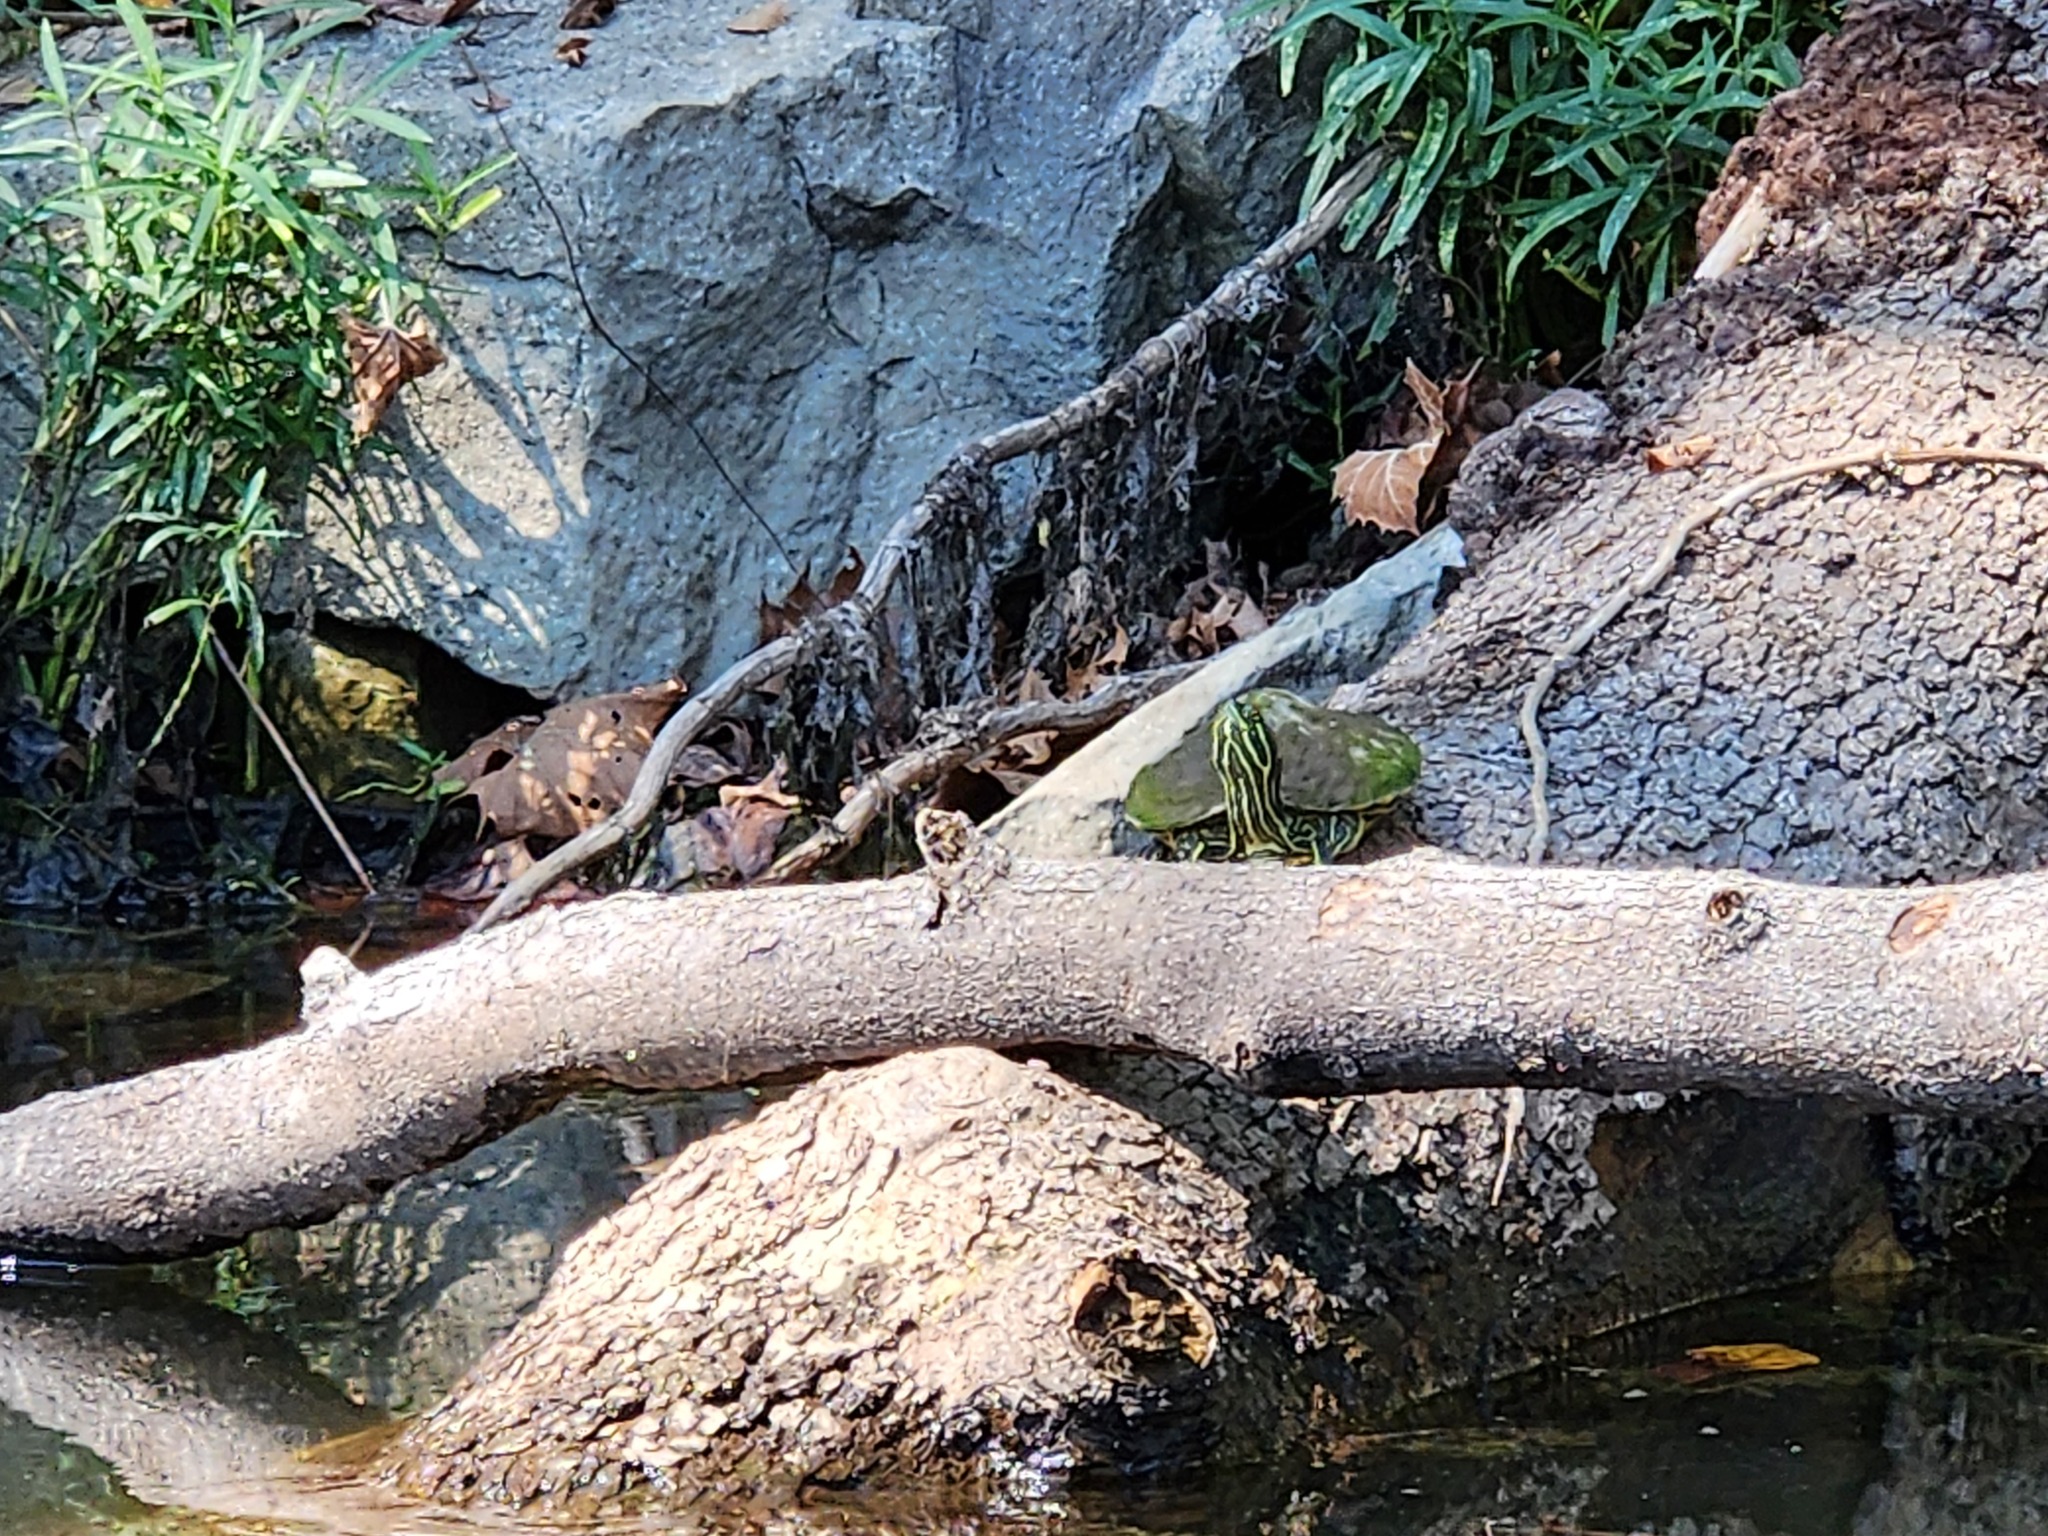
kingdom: Animalia
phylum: Chordata
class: Testudines
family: Emydidae
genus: Trachemys
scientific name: Trachemys scripta
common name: Slider
